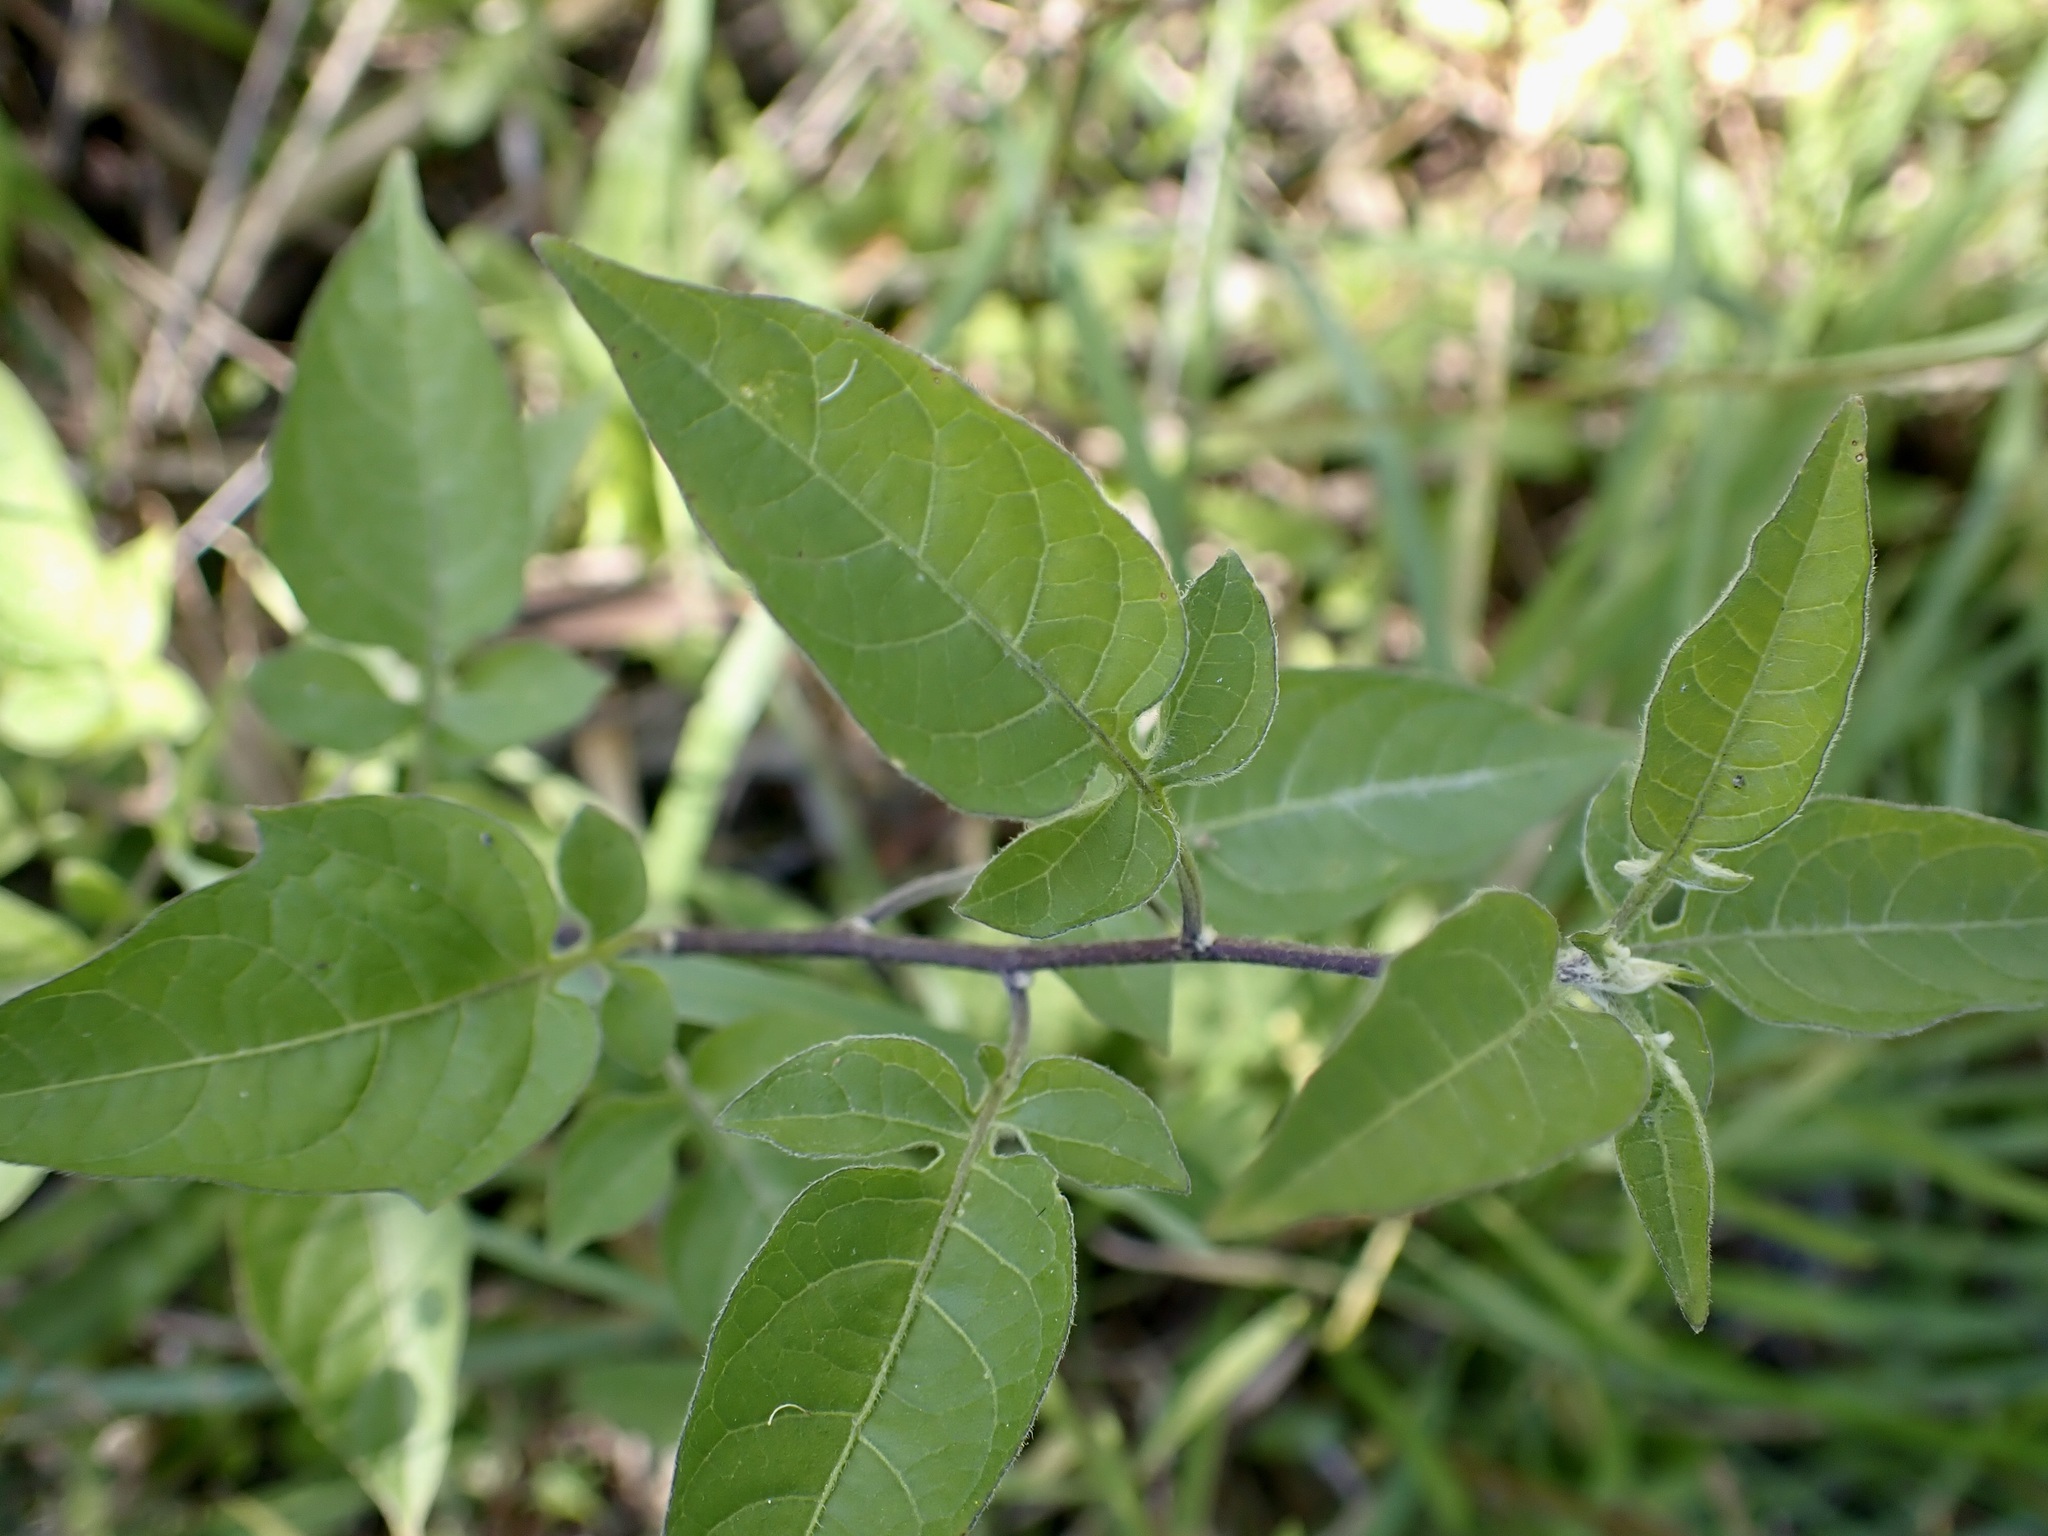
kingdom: Plantae
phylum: Tracheophyta
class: Magnoliopsida
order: Solanales
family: Solanaceae
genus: Solanum
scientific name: Solanum dulcamara
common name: Climbing nightshade
